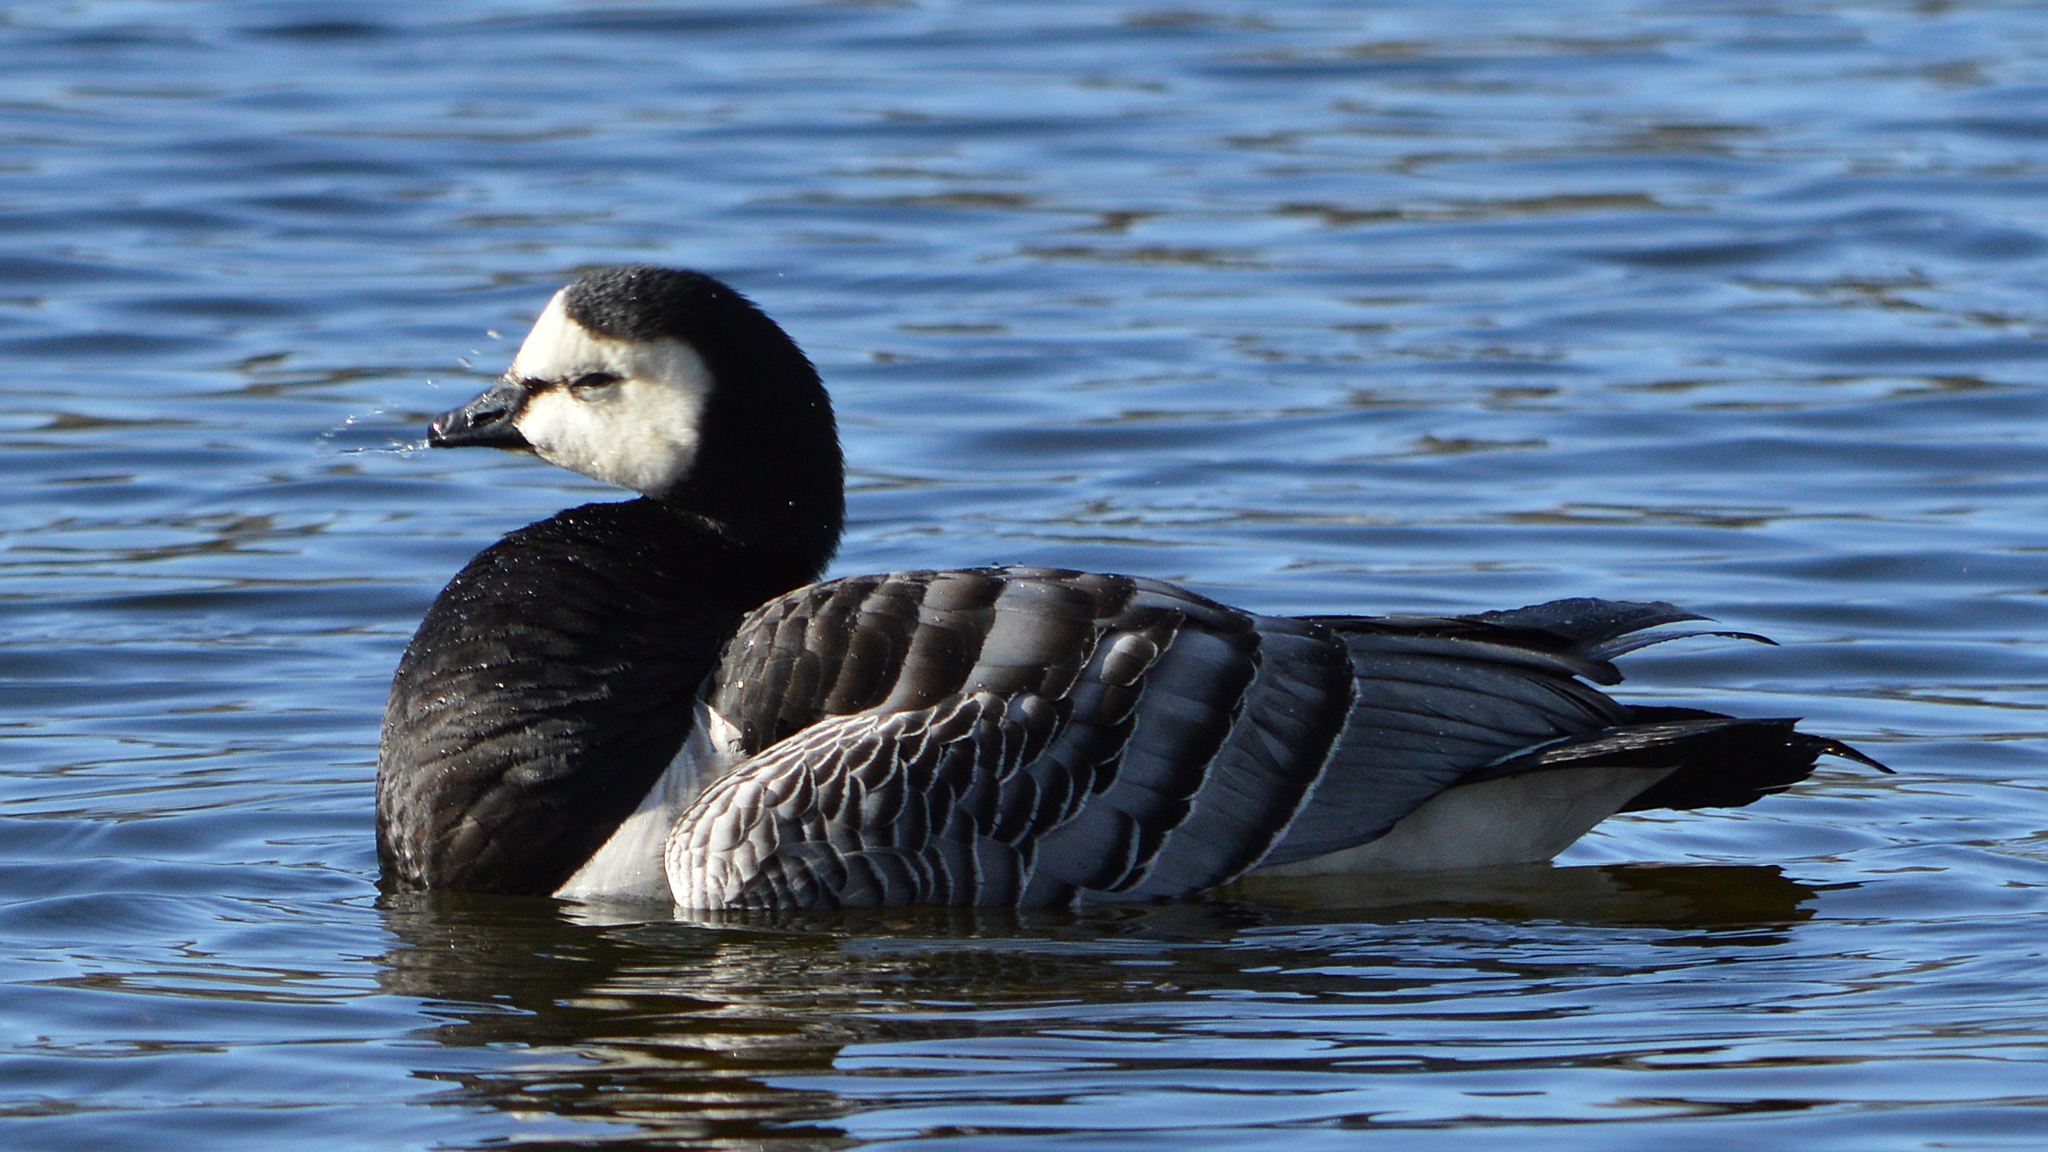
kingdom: Animalia
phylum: Chordata
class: Aves
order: Anseriformes
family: Anatidae
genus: Branta
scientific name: Branta leucopsis
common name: Barnacle goose
